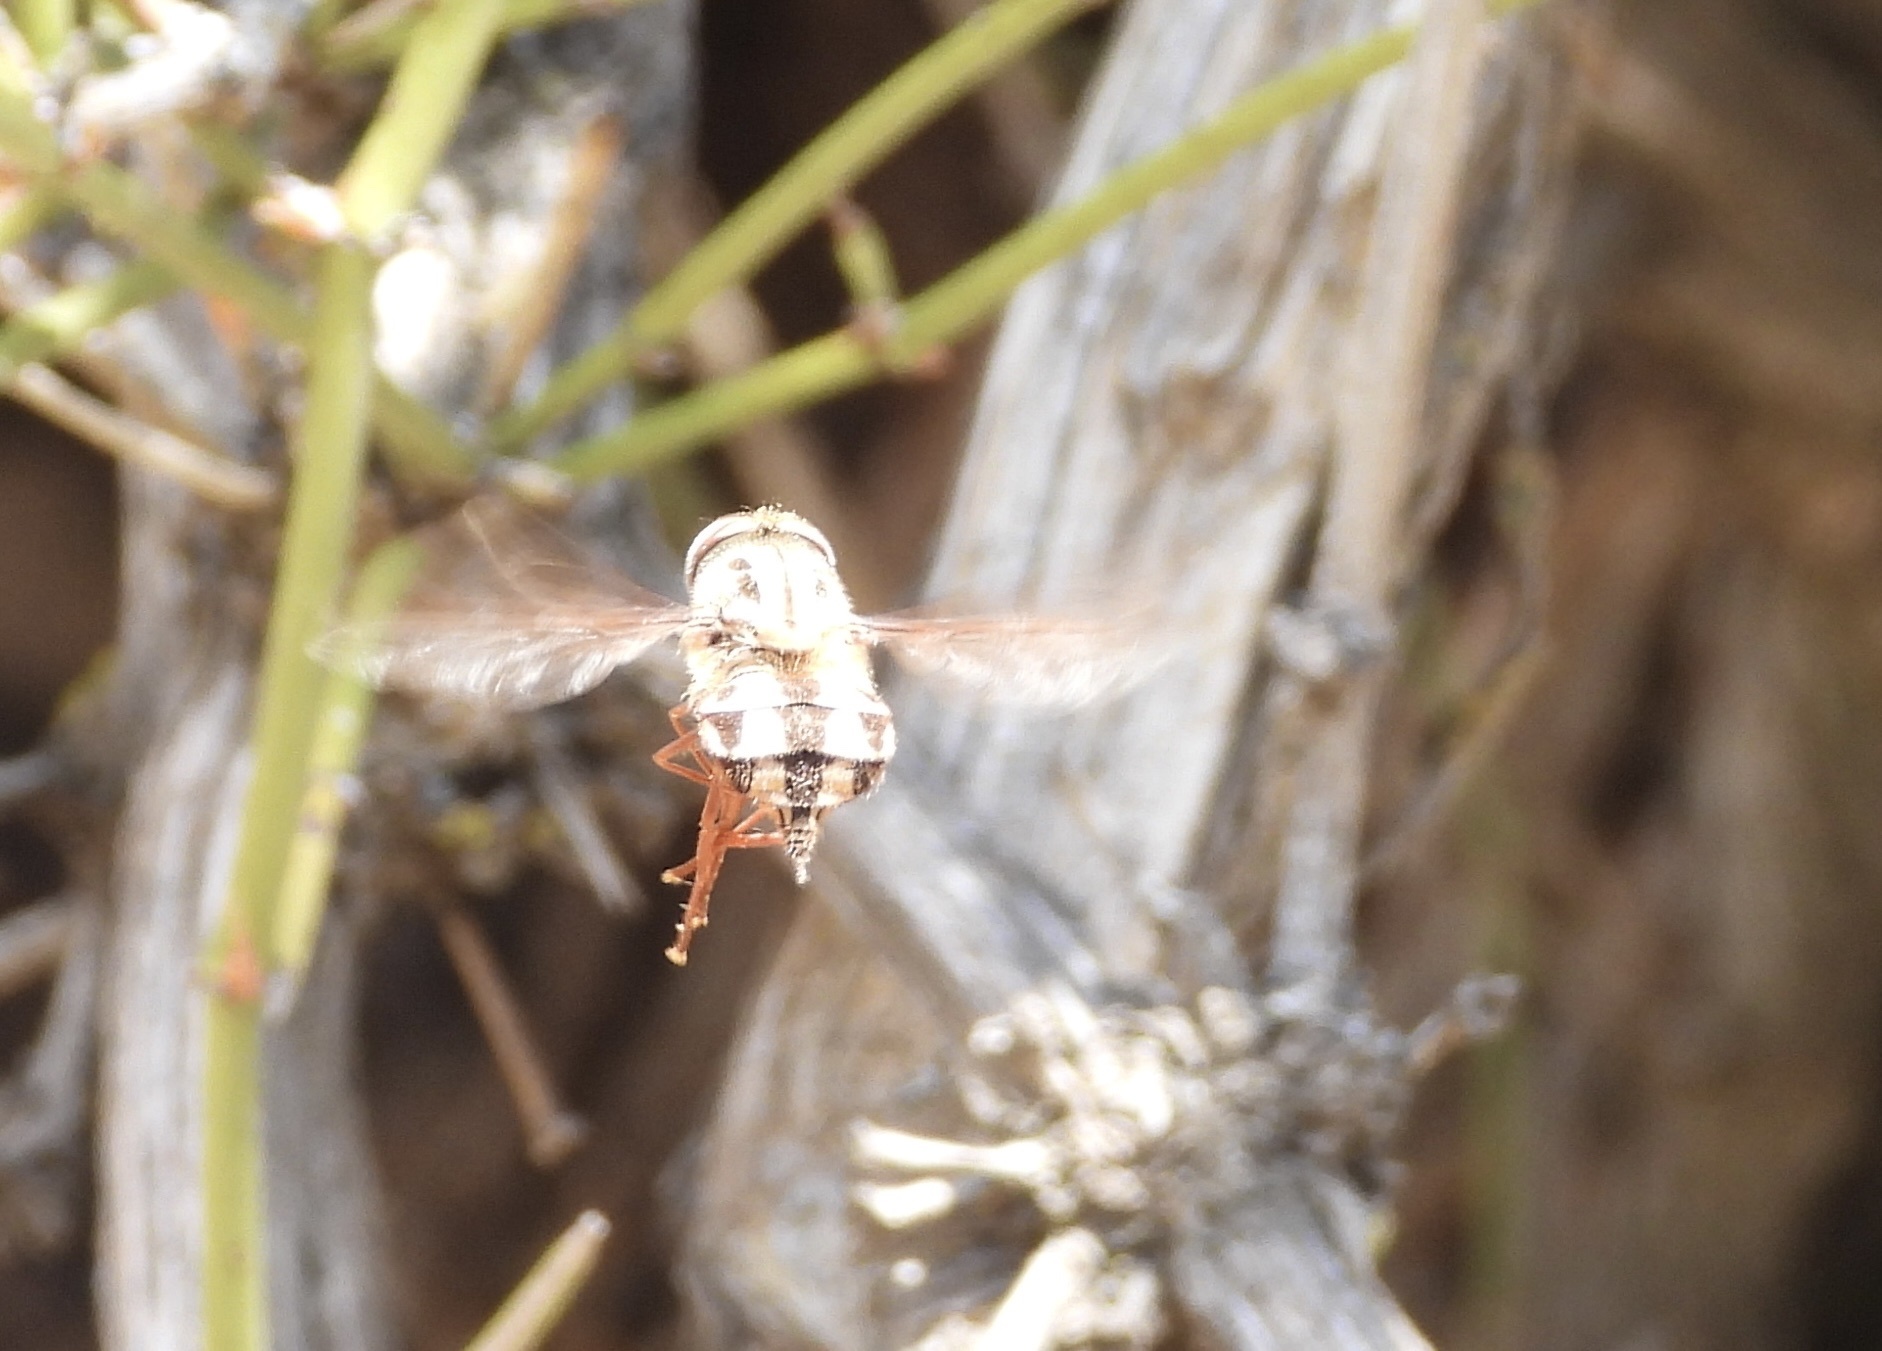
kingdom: Animalia
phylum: Arthropoda
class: Insecta
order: Diptera
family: Nemestrinidae
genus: Trichophthalma
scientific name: Trichophthalma barbarossa
